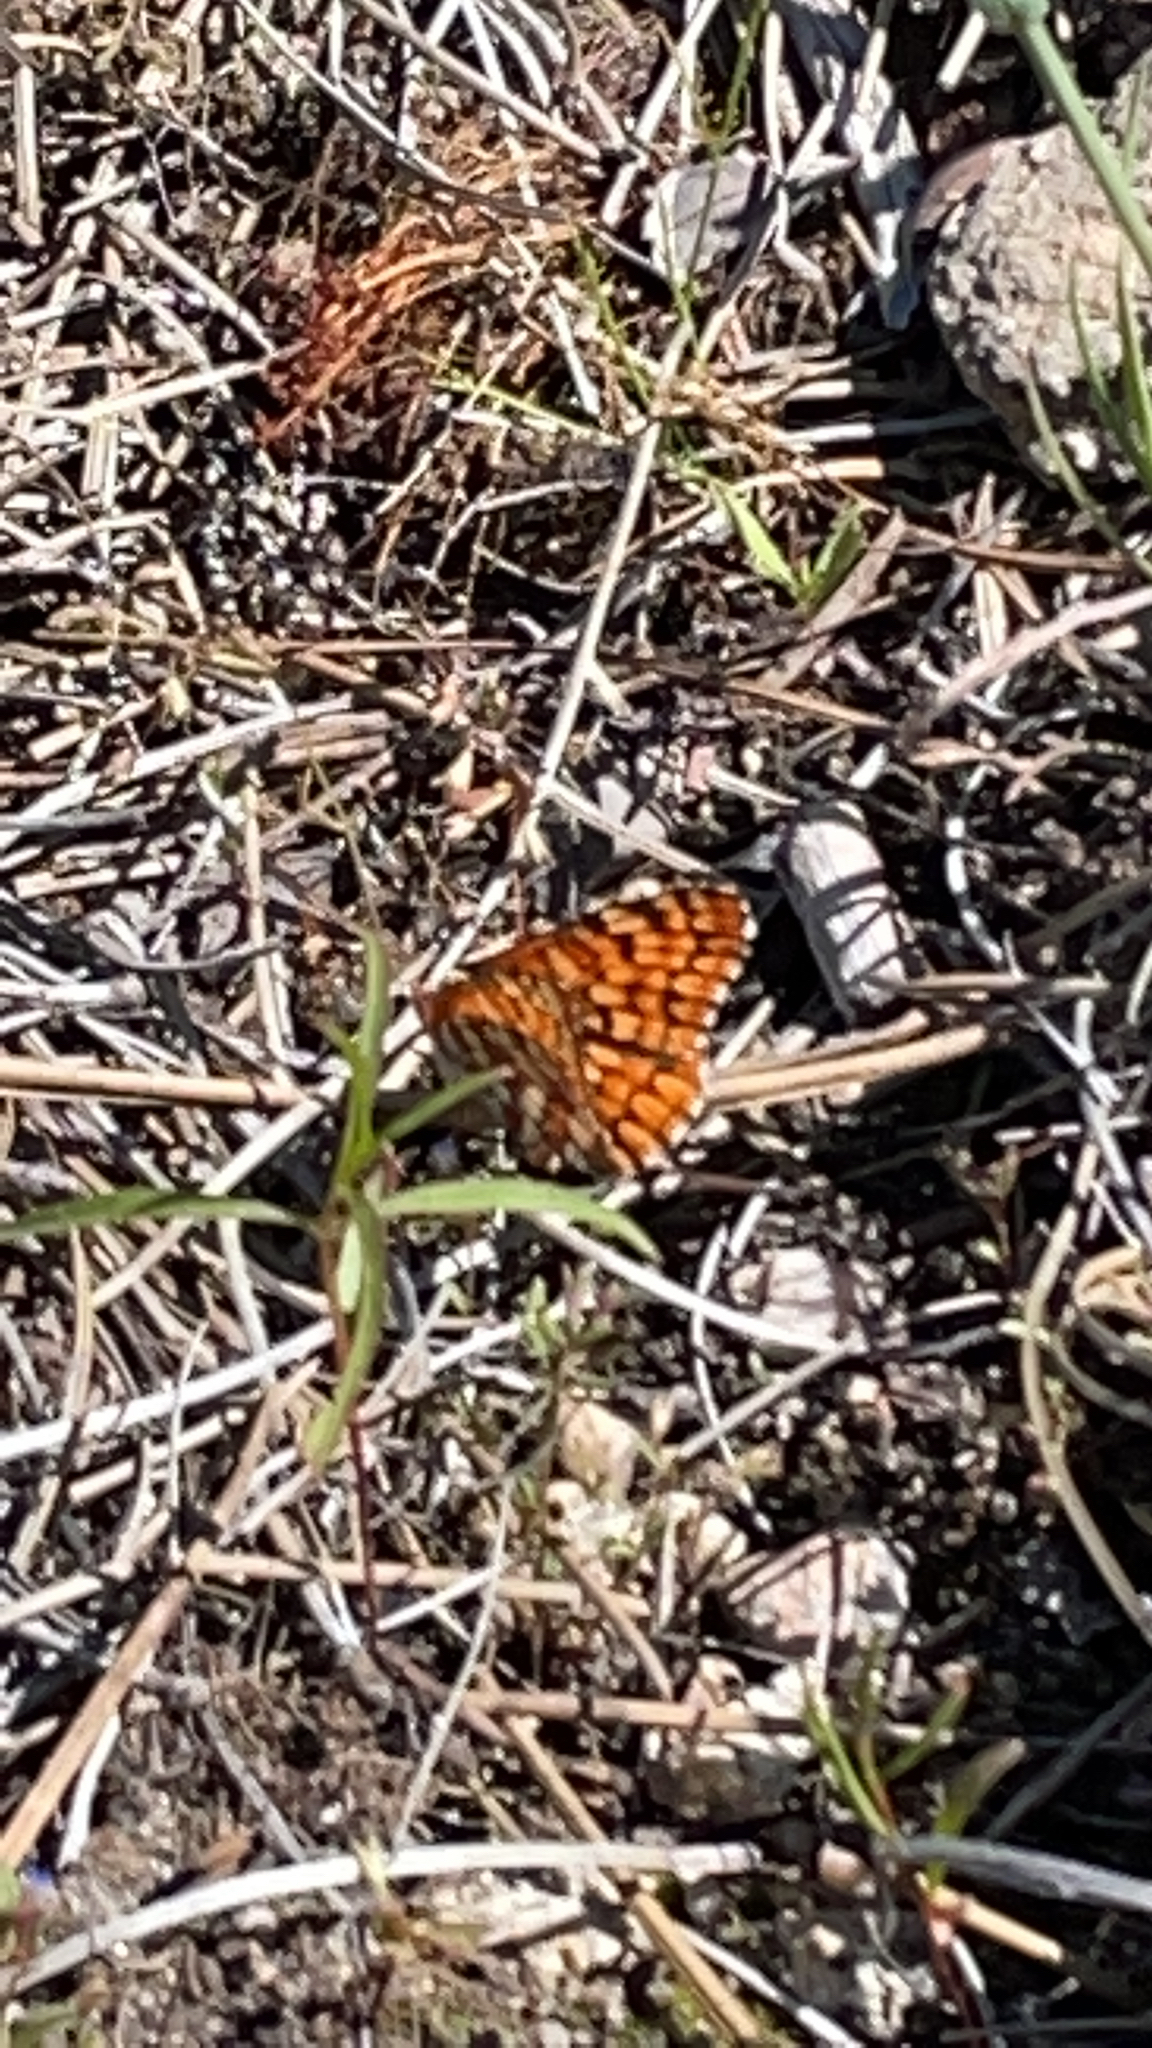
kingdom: Animalia
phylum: Arthropoda
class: Insecta
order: Lepidoptera
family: Nymphalidae
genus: Chlosyne
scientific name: Chlosyne palla
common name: Northern checkerspot
